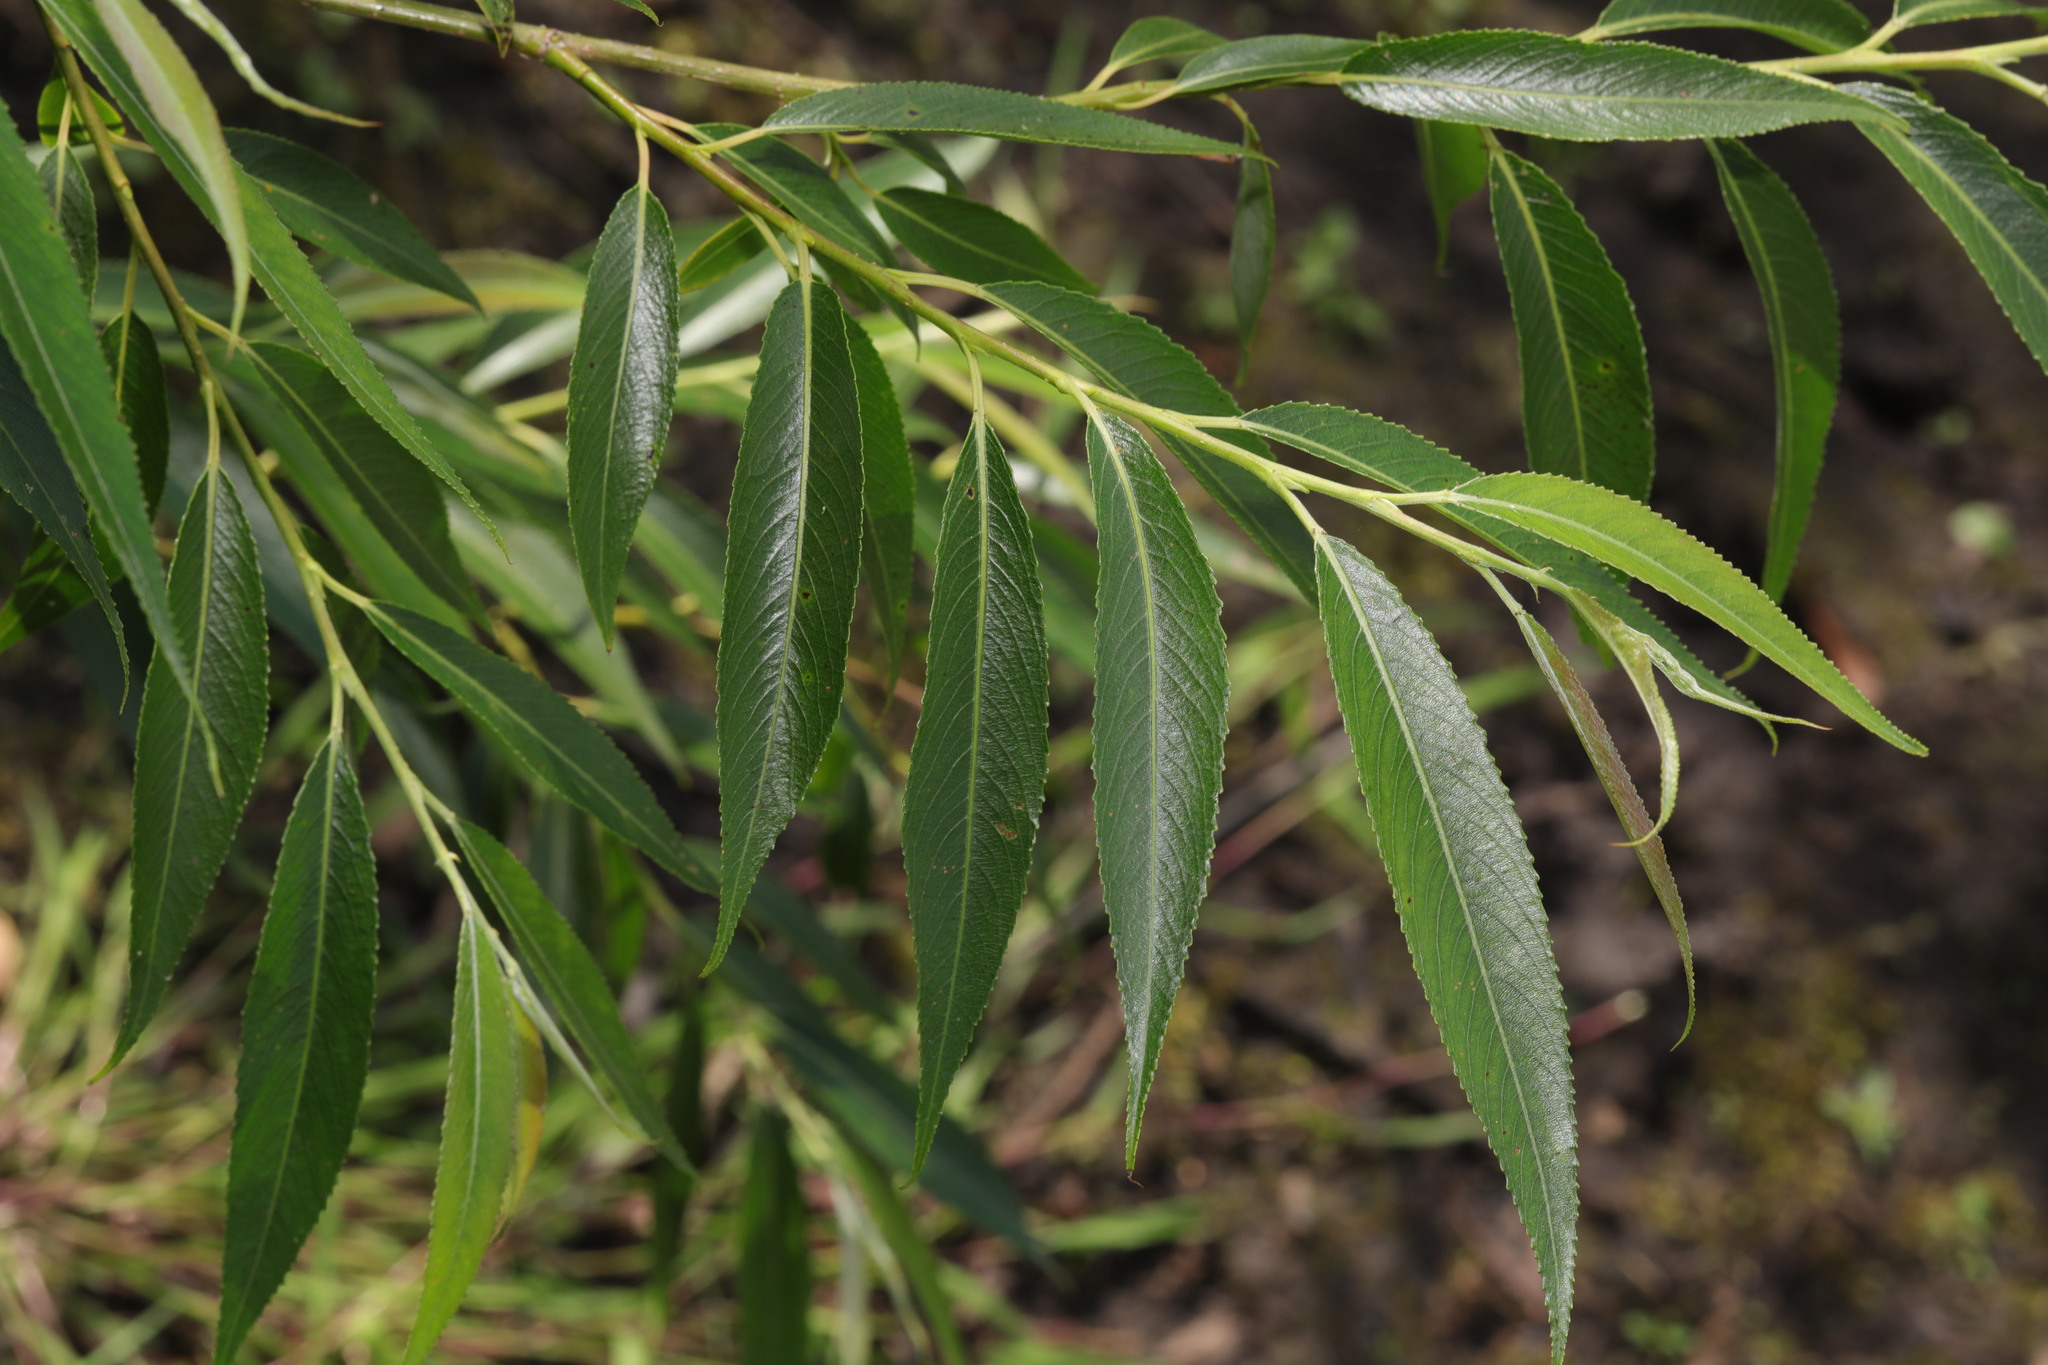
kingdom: Plantae
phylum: Tracheophyta
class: Magnoliopsida
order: Malpighiales
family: Salicaceae
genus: Salix
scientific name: Salix fragilis
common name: Crack willow
